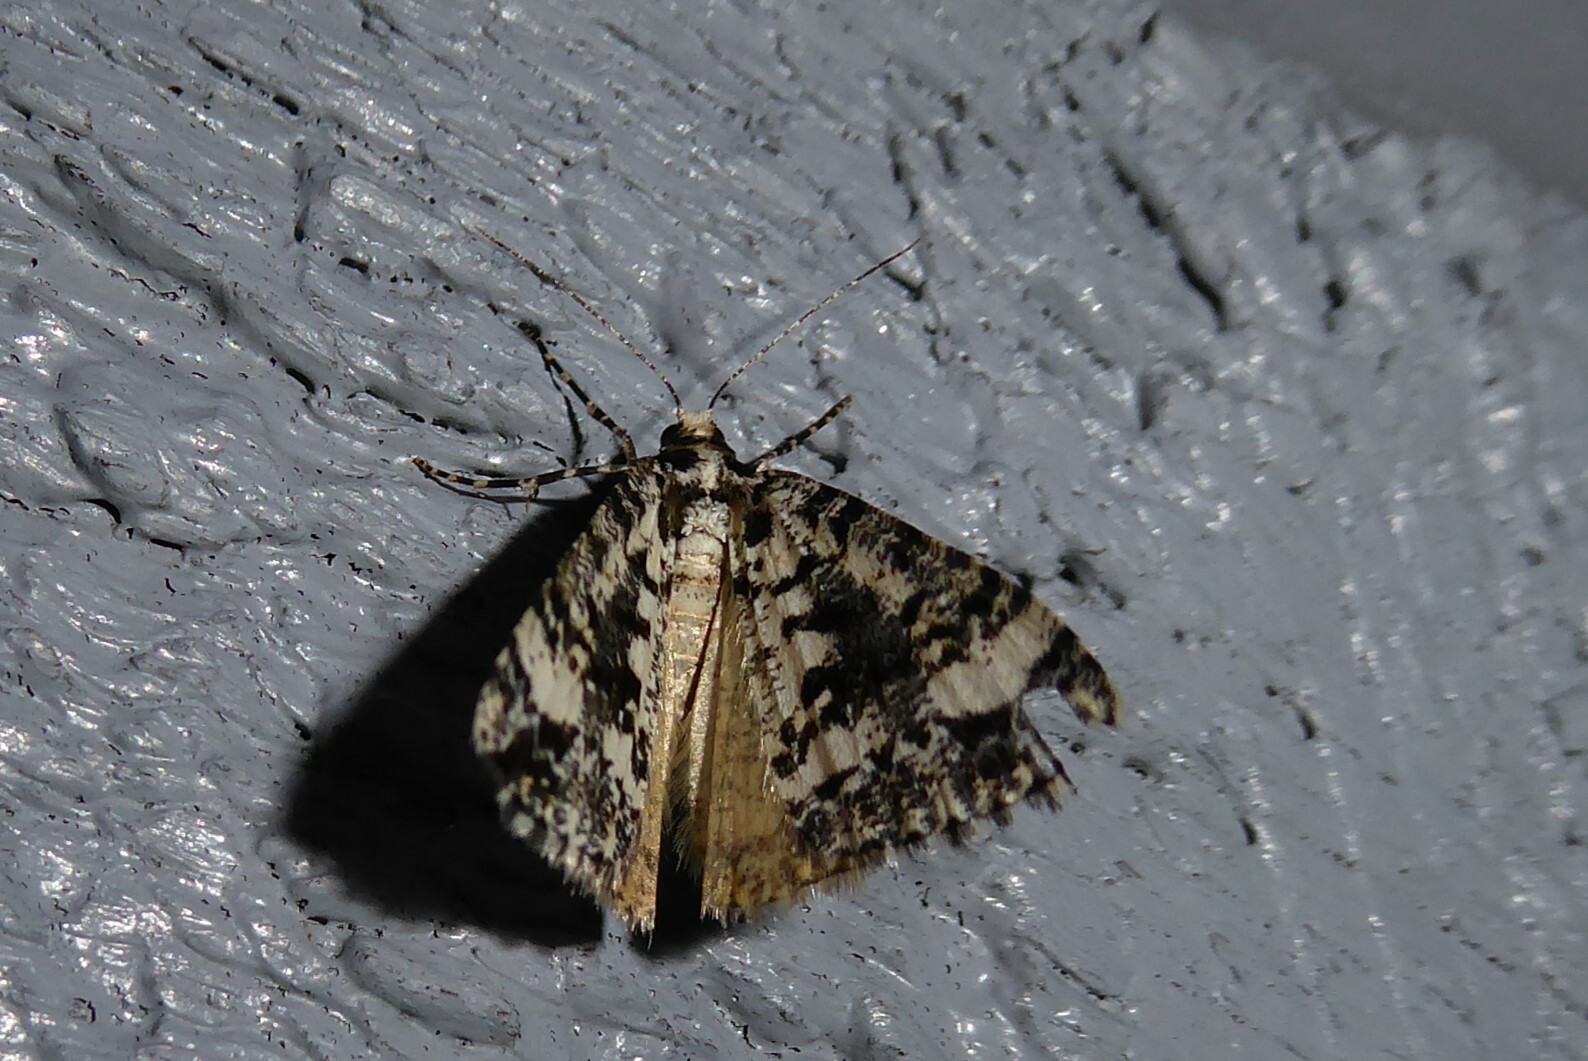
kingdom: Animalia
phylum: Arthropoda
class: Insecta
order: Lepidoptera
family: Geometridae
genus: Pseudocoremia
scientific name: Pseudocoremia leucelaea
